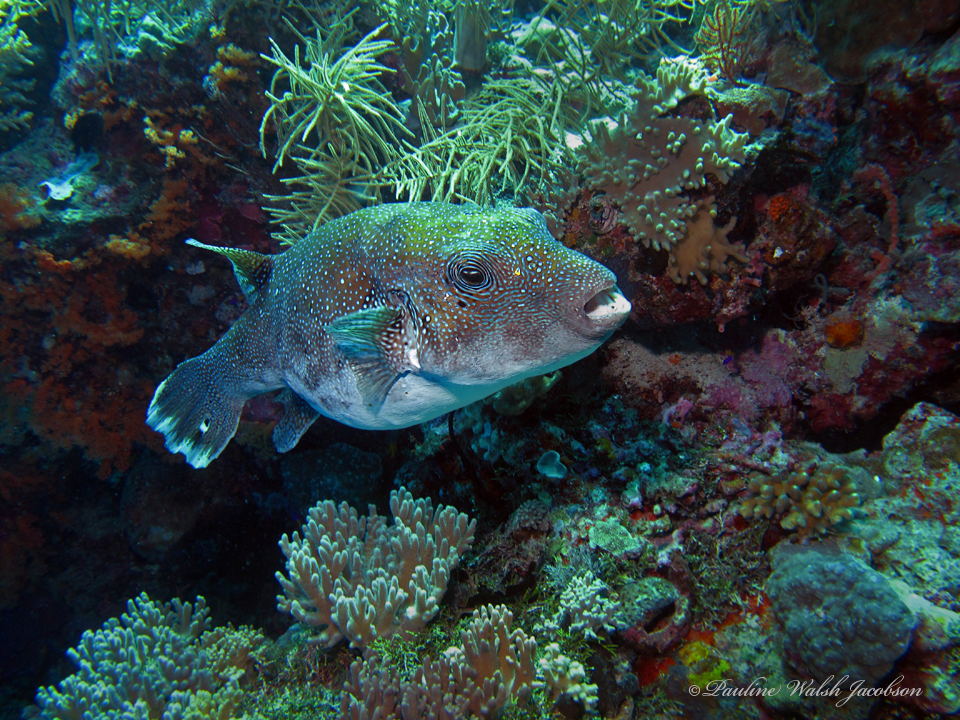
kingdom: Animalia
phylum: Chordata
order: Tetraodontiformes
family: Tetraodontidae
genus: Arothron
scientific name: Arothron caeruleopunctatus
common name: Blue-spotted puffer
